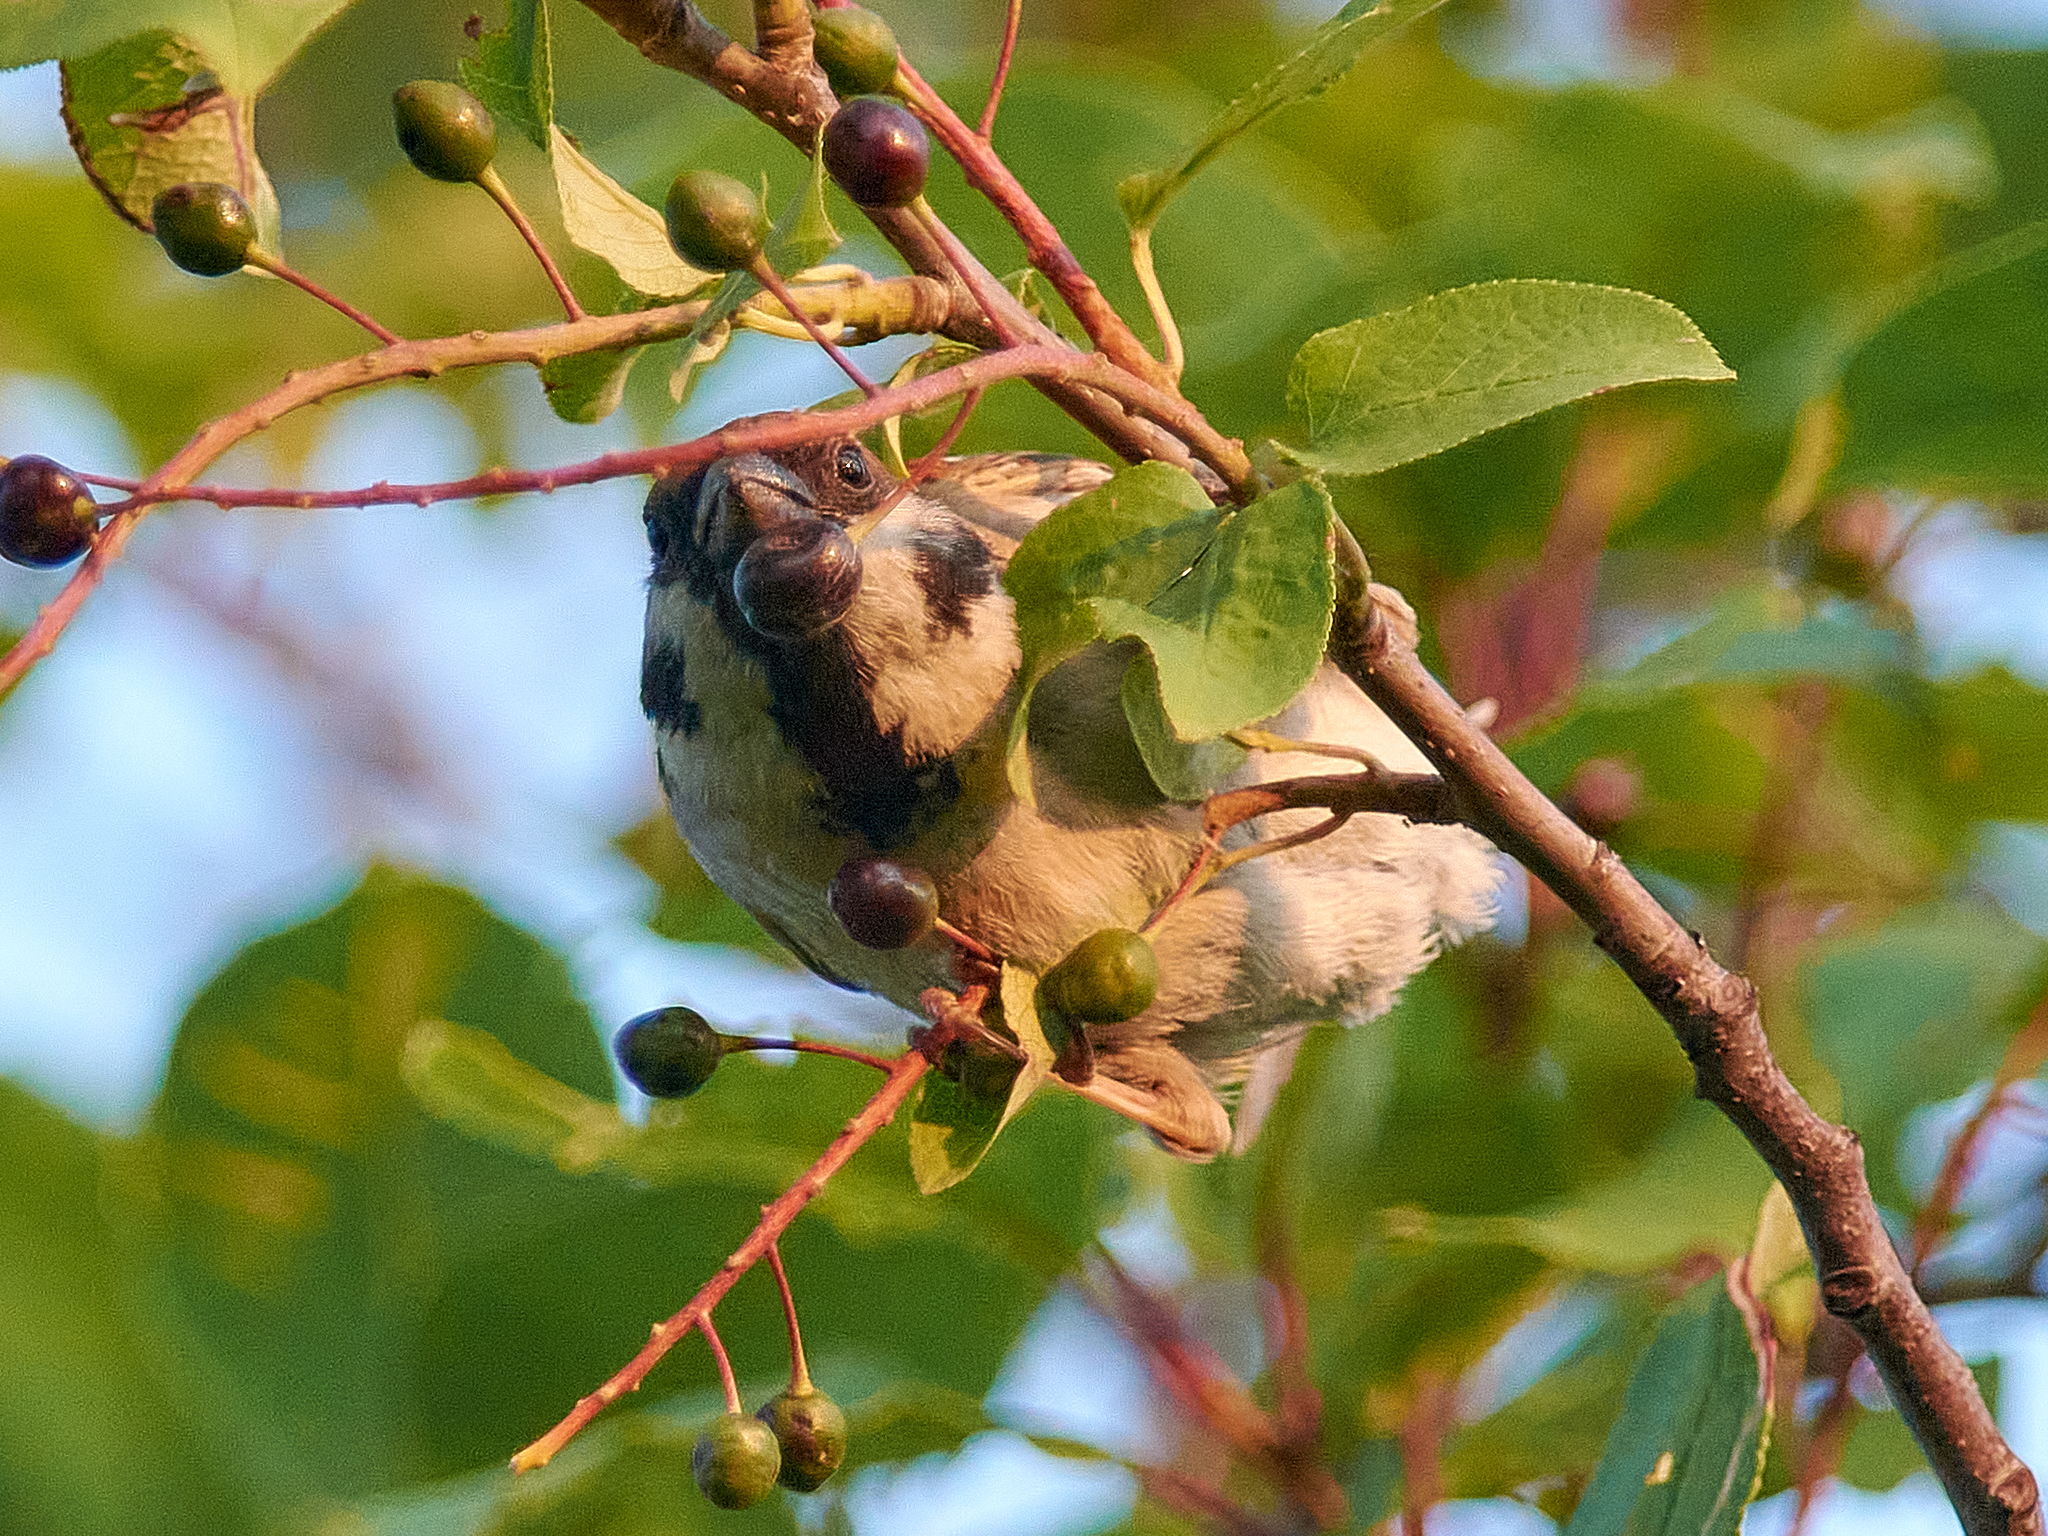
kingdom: Animalia
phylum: Chordata
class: Aves
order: Passeriformes
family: Passeridae
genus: Passer
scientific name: Passer montanus
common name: Eurasian tree sparrow
